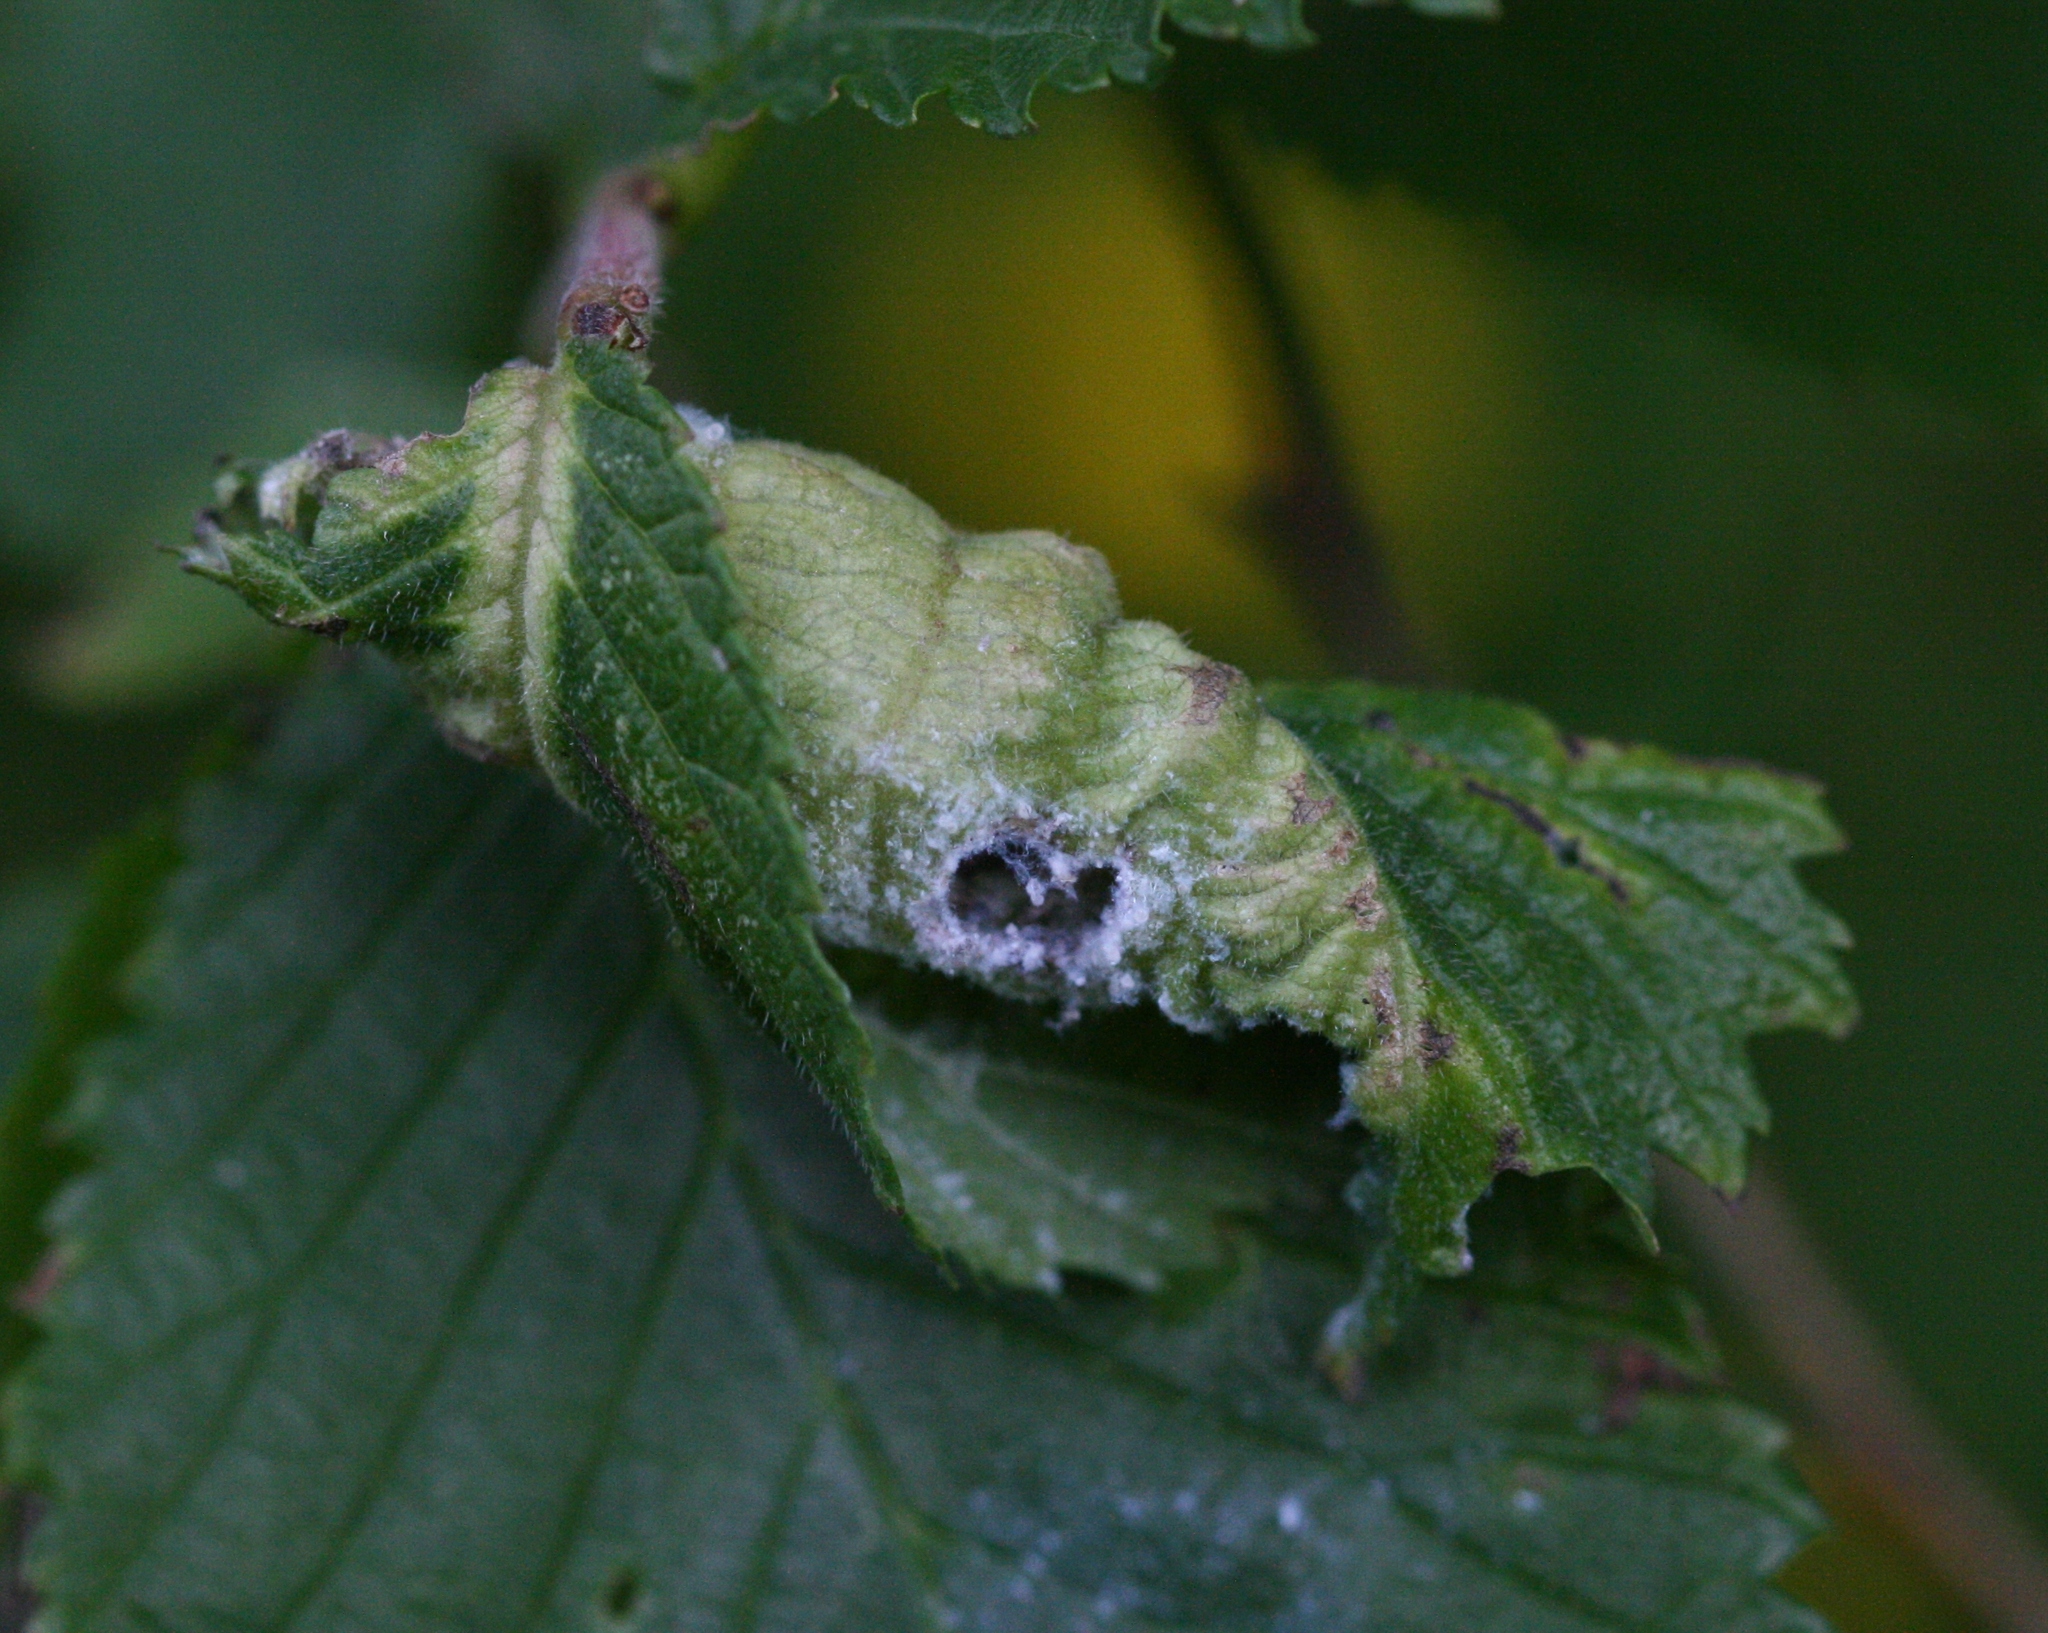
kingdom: Animalia
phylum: Arthropoda
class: Insecta
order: Hemiptera
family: Aphididae
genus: Eriosoma
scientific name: Eriosoma ulmi
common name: Woolly aphids
